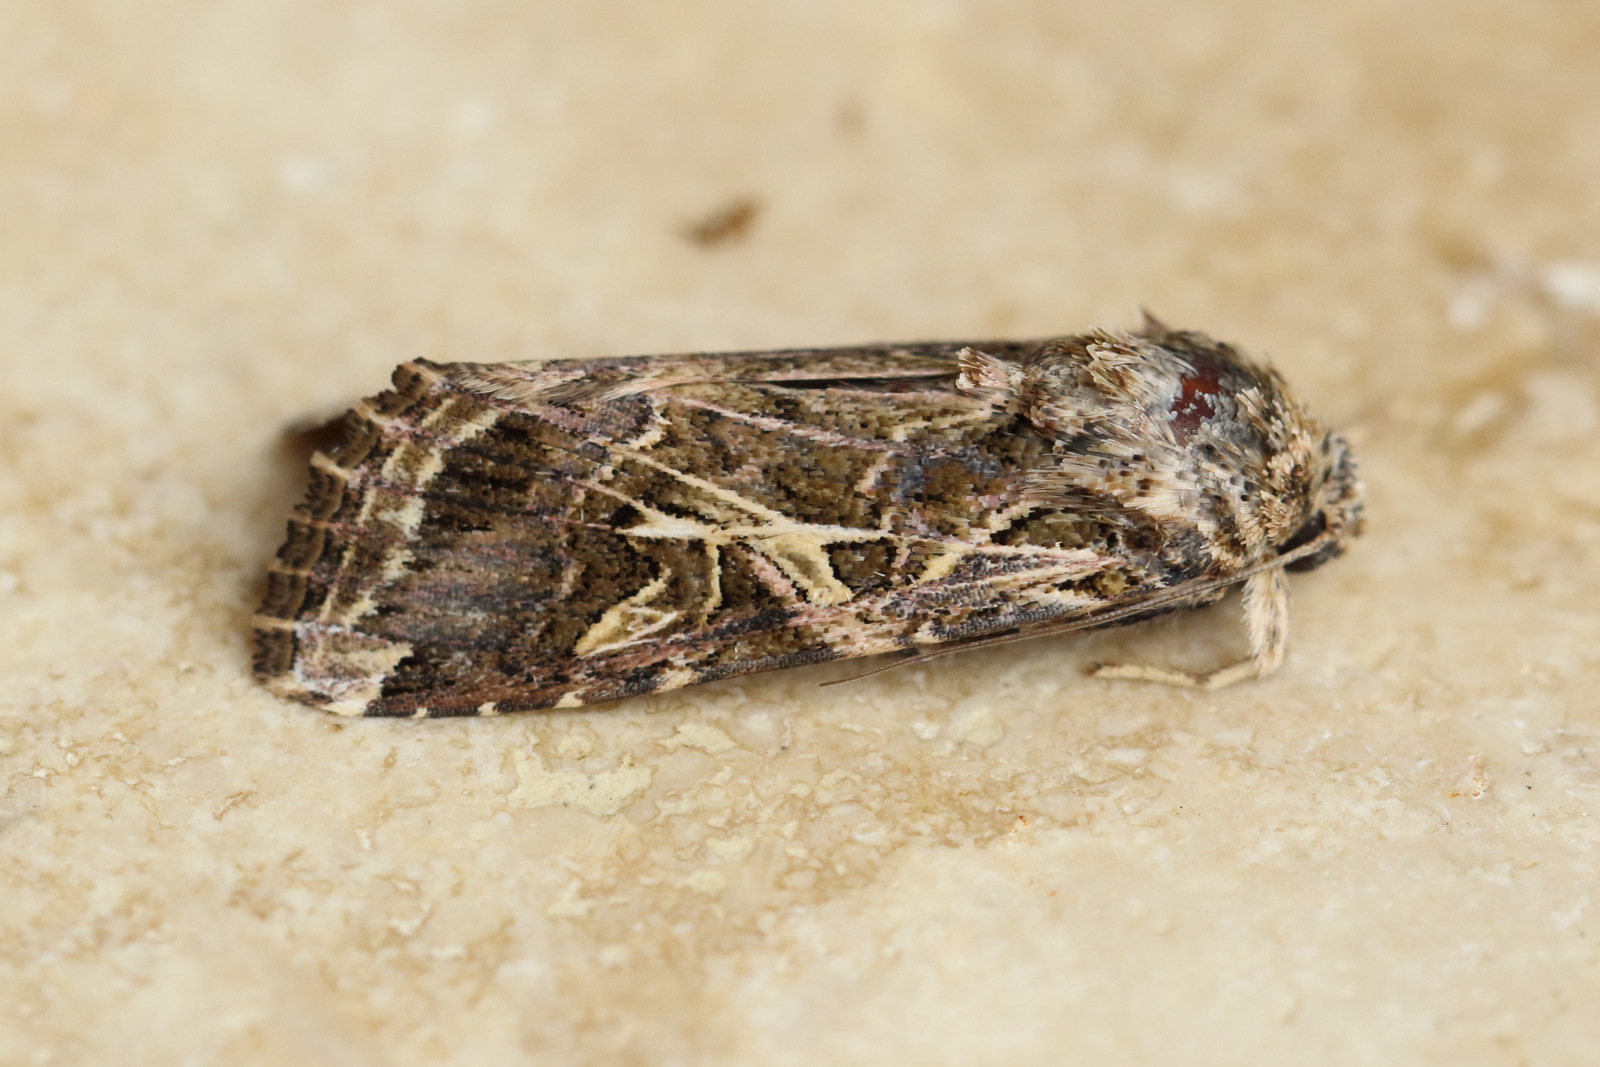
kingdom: Animalia
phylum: Arthropoda
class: Insecta
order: Lepidoptera
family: Noctuidae
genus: Spodoptera
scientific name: Spodoptera litura
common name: Asian cotton leafworm
